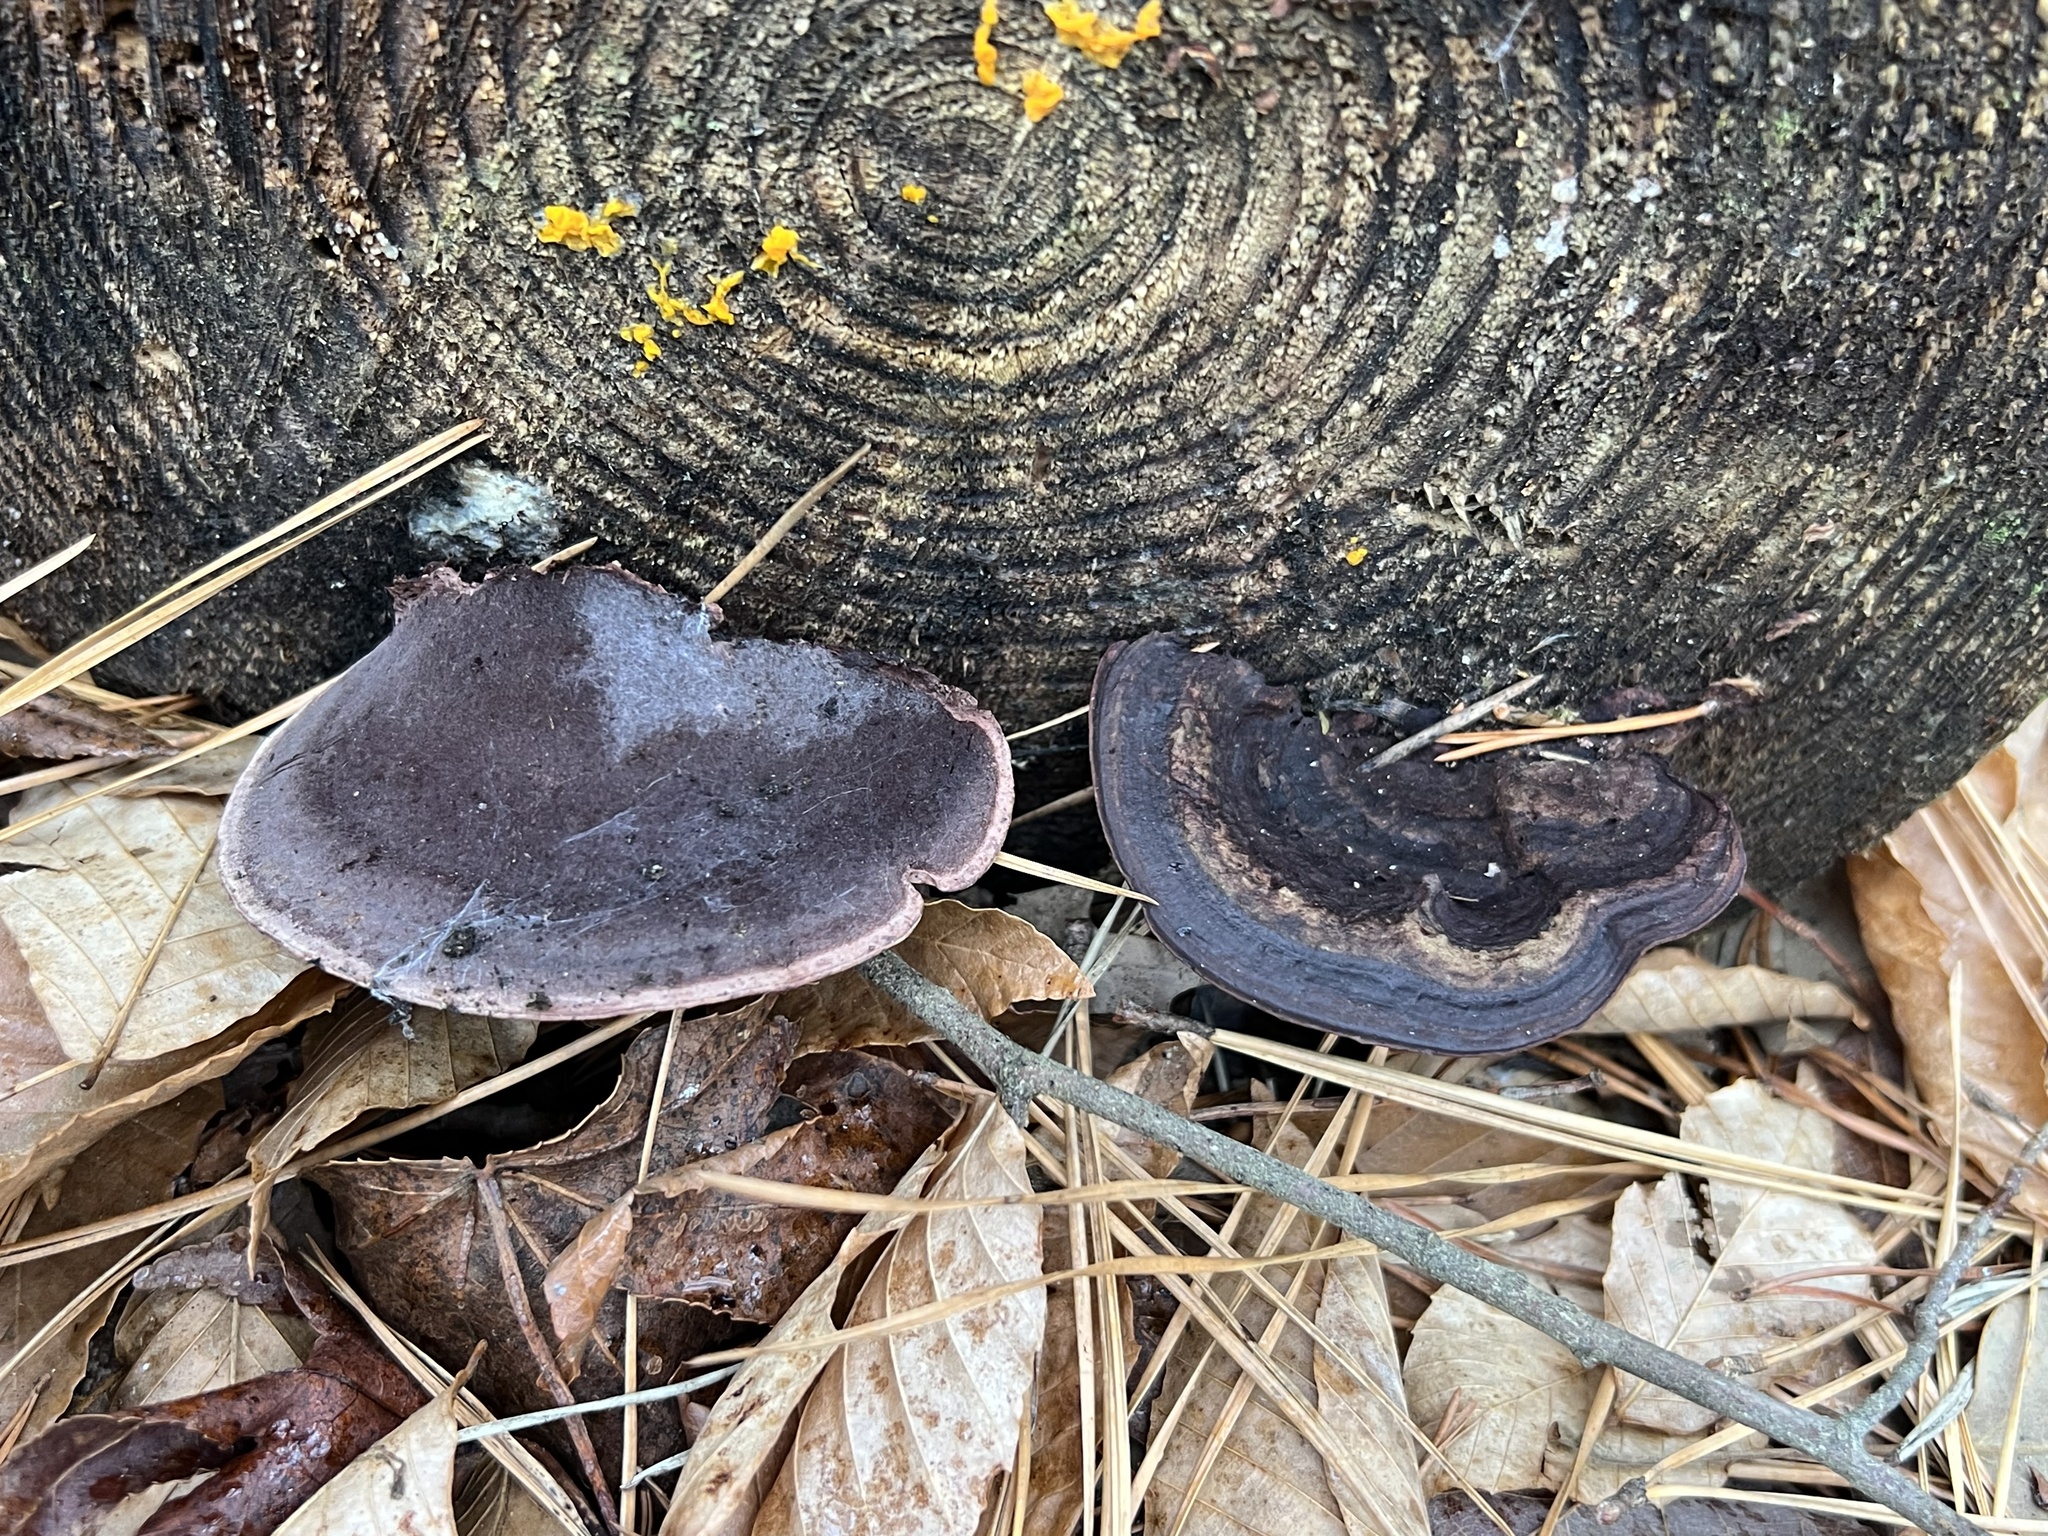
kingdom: Fungi
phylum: Basidiomycota
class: Agaricomycetes
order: Polyporales
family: Steccherinaceae
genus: Nigroporus
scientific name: Nigroporus vinosus
